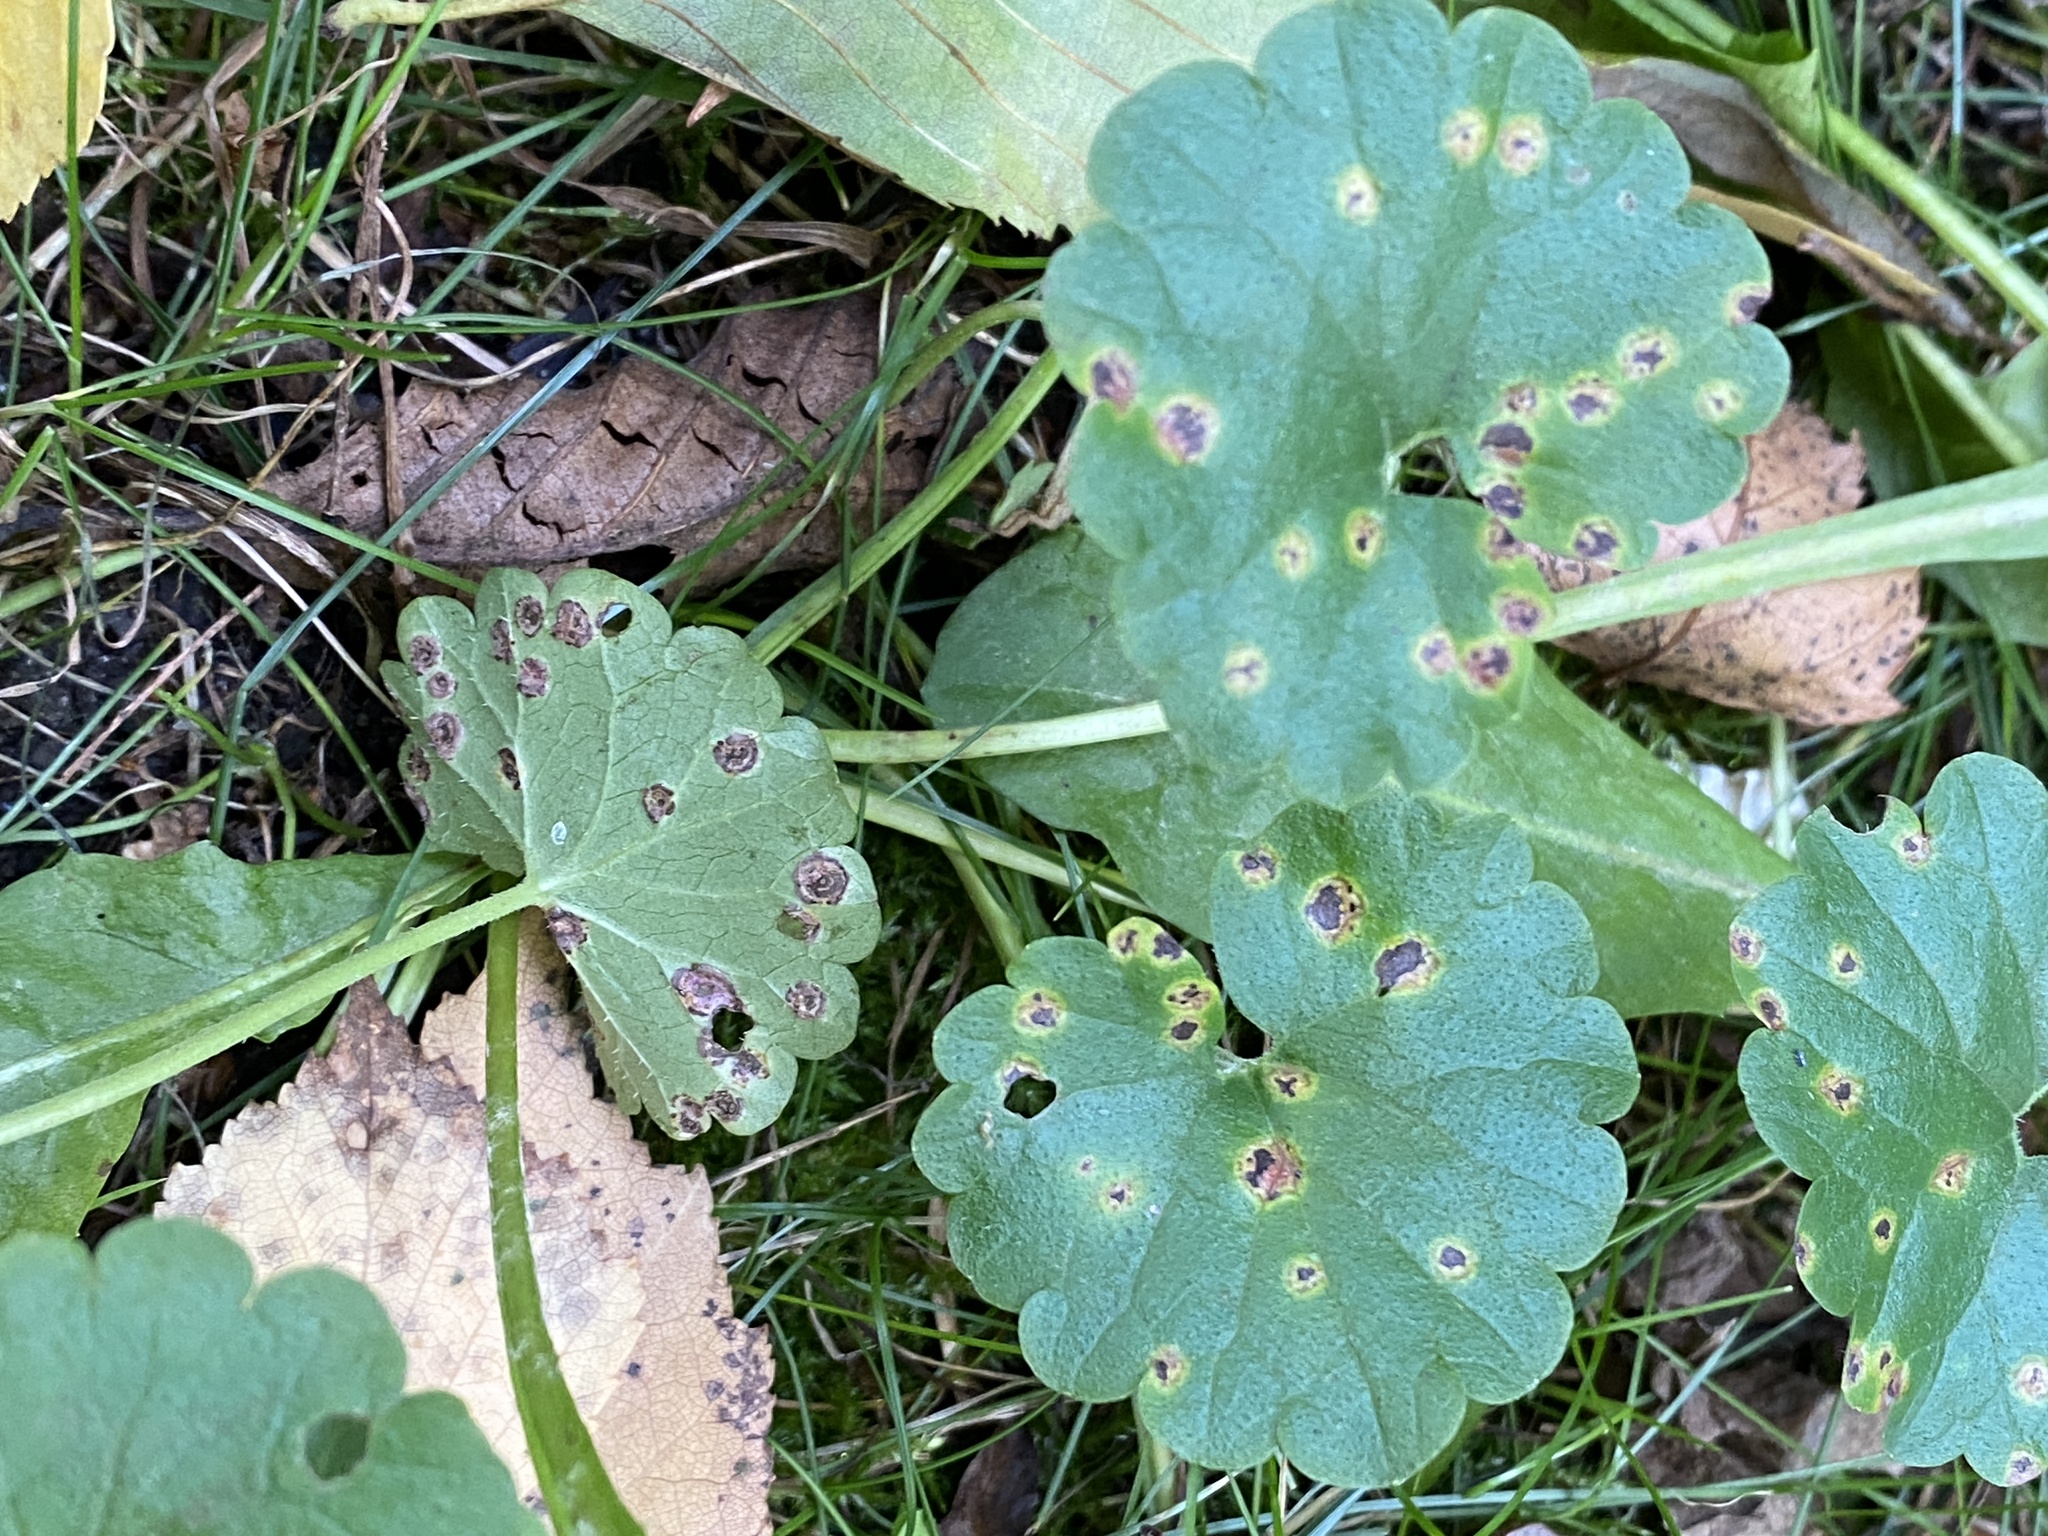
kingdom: Fungi
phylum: Basidiomycota
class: Pucciniomycetes
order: Pucciniales
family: Pucciniaceae
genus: Puccinia
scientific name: Puccinia glechomatis
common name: Ground ivy rust
